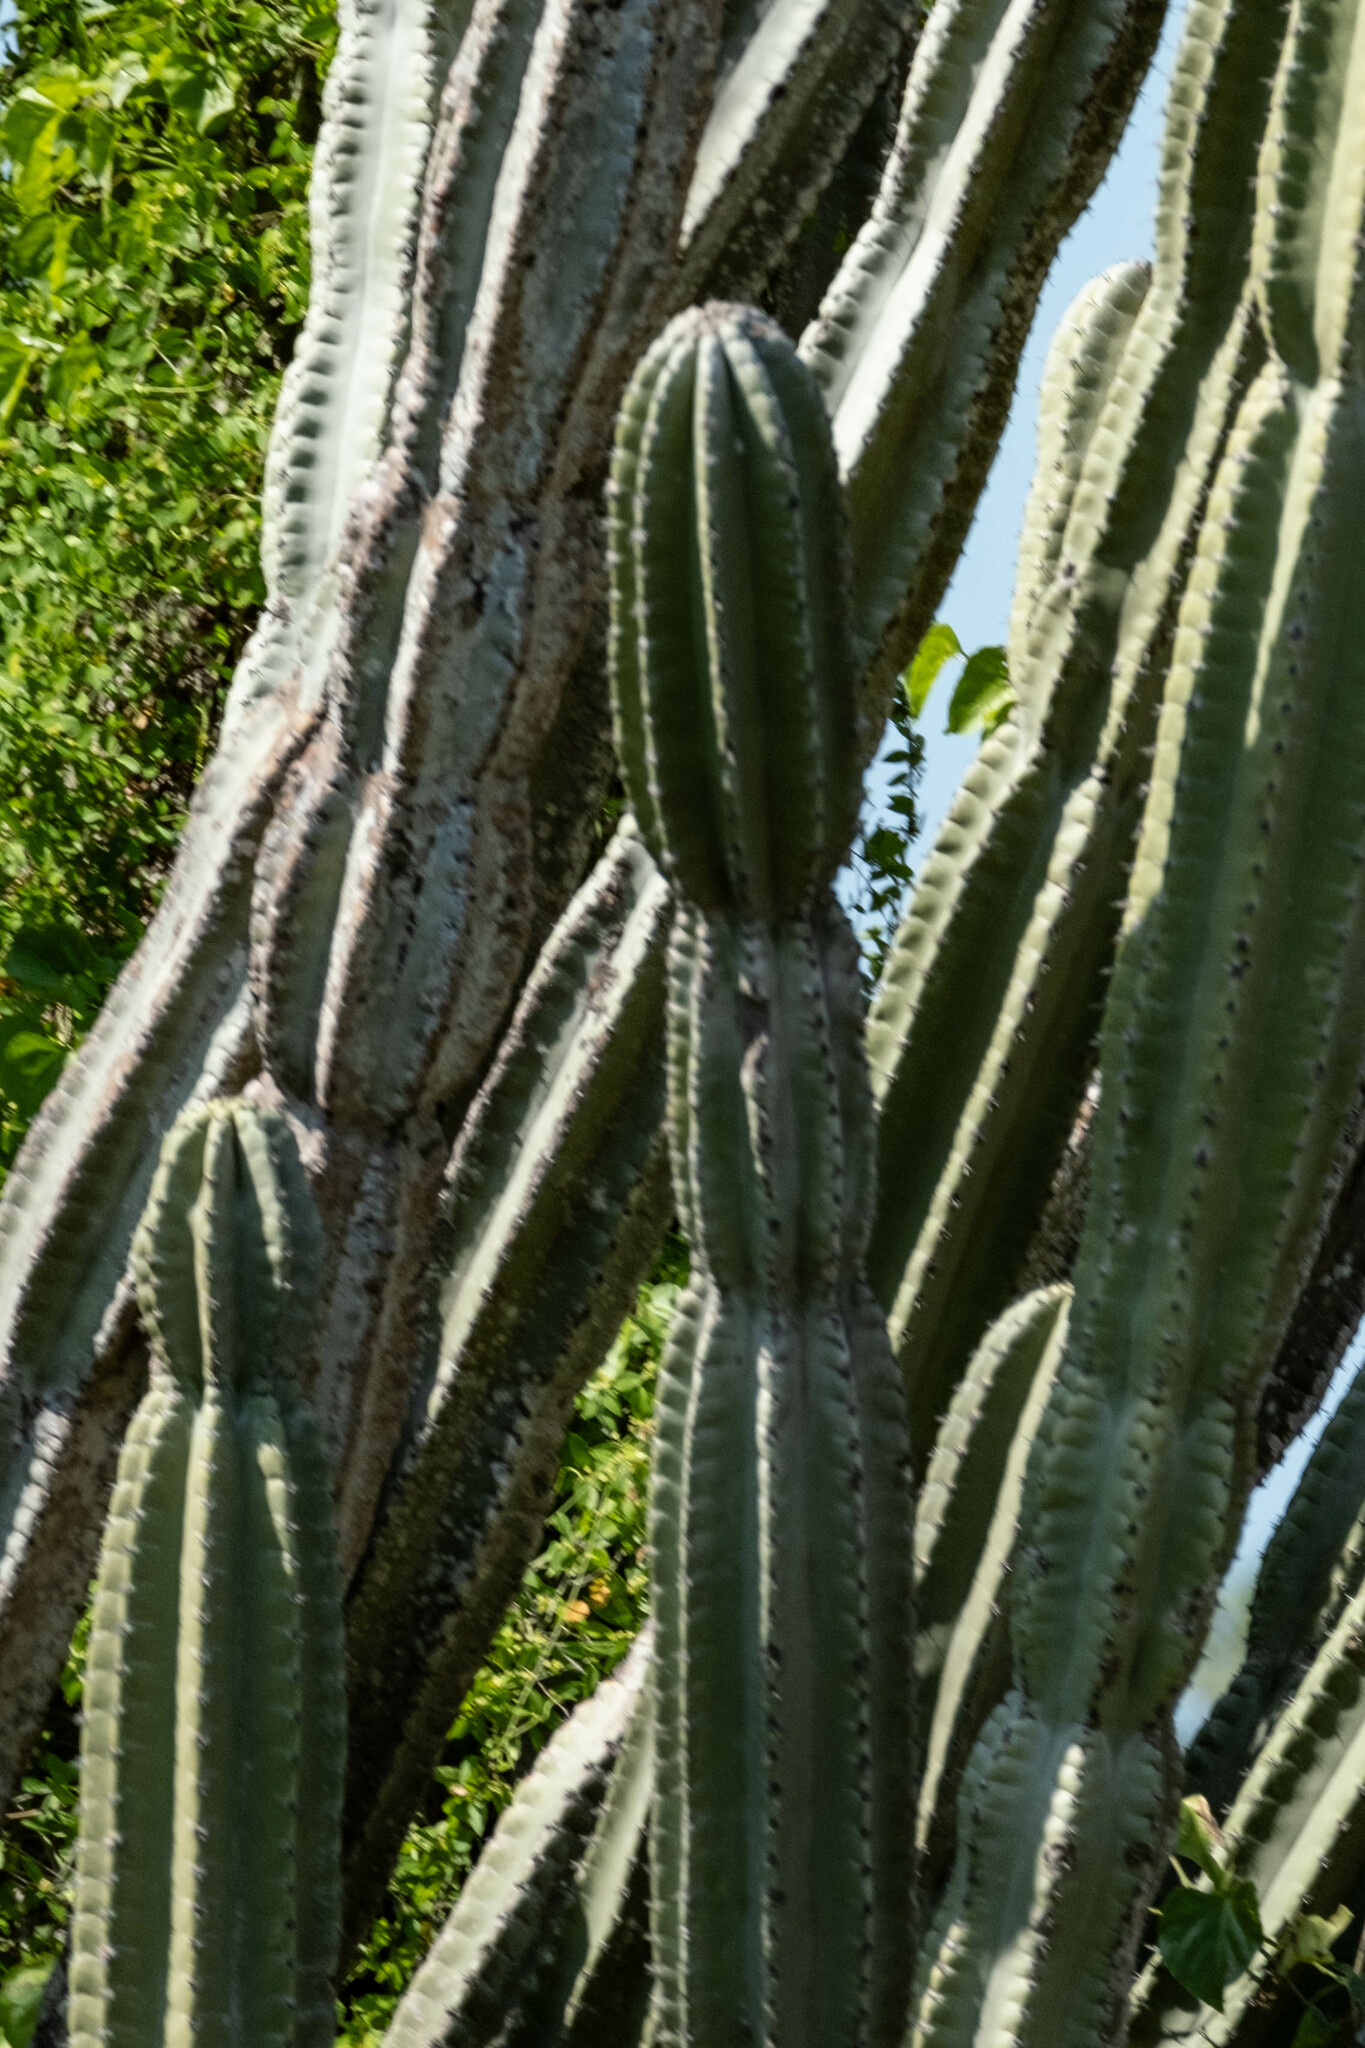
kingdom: Plantae
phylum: Tracheophyta
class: Magnoliopsida
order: Caryophyllales
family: Cactaceae
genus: Cereus
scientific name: Cereus repandus
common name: Sweetpotato cactus
